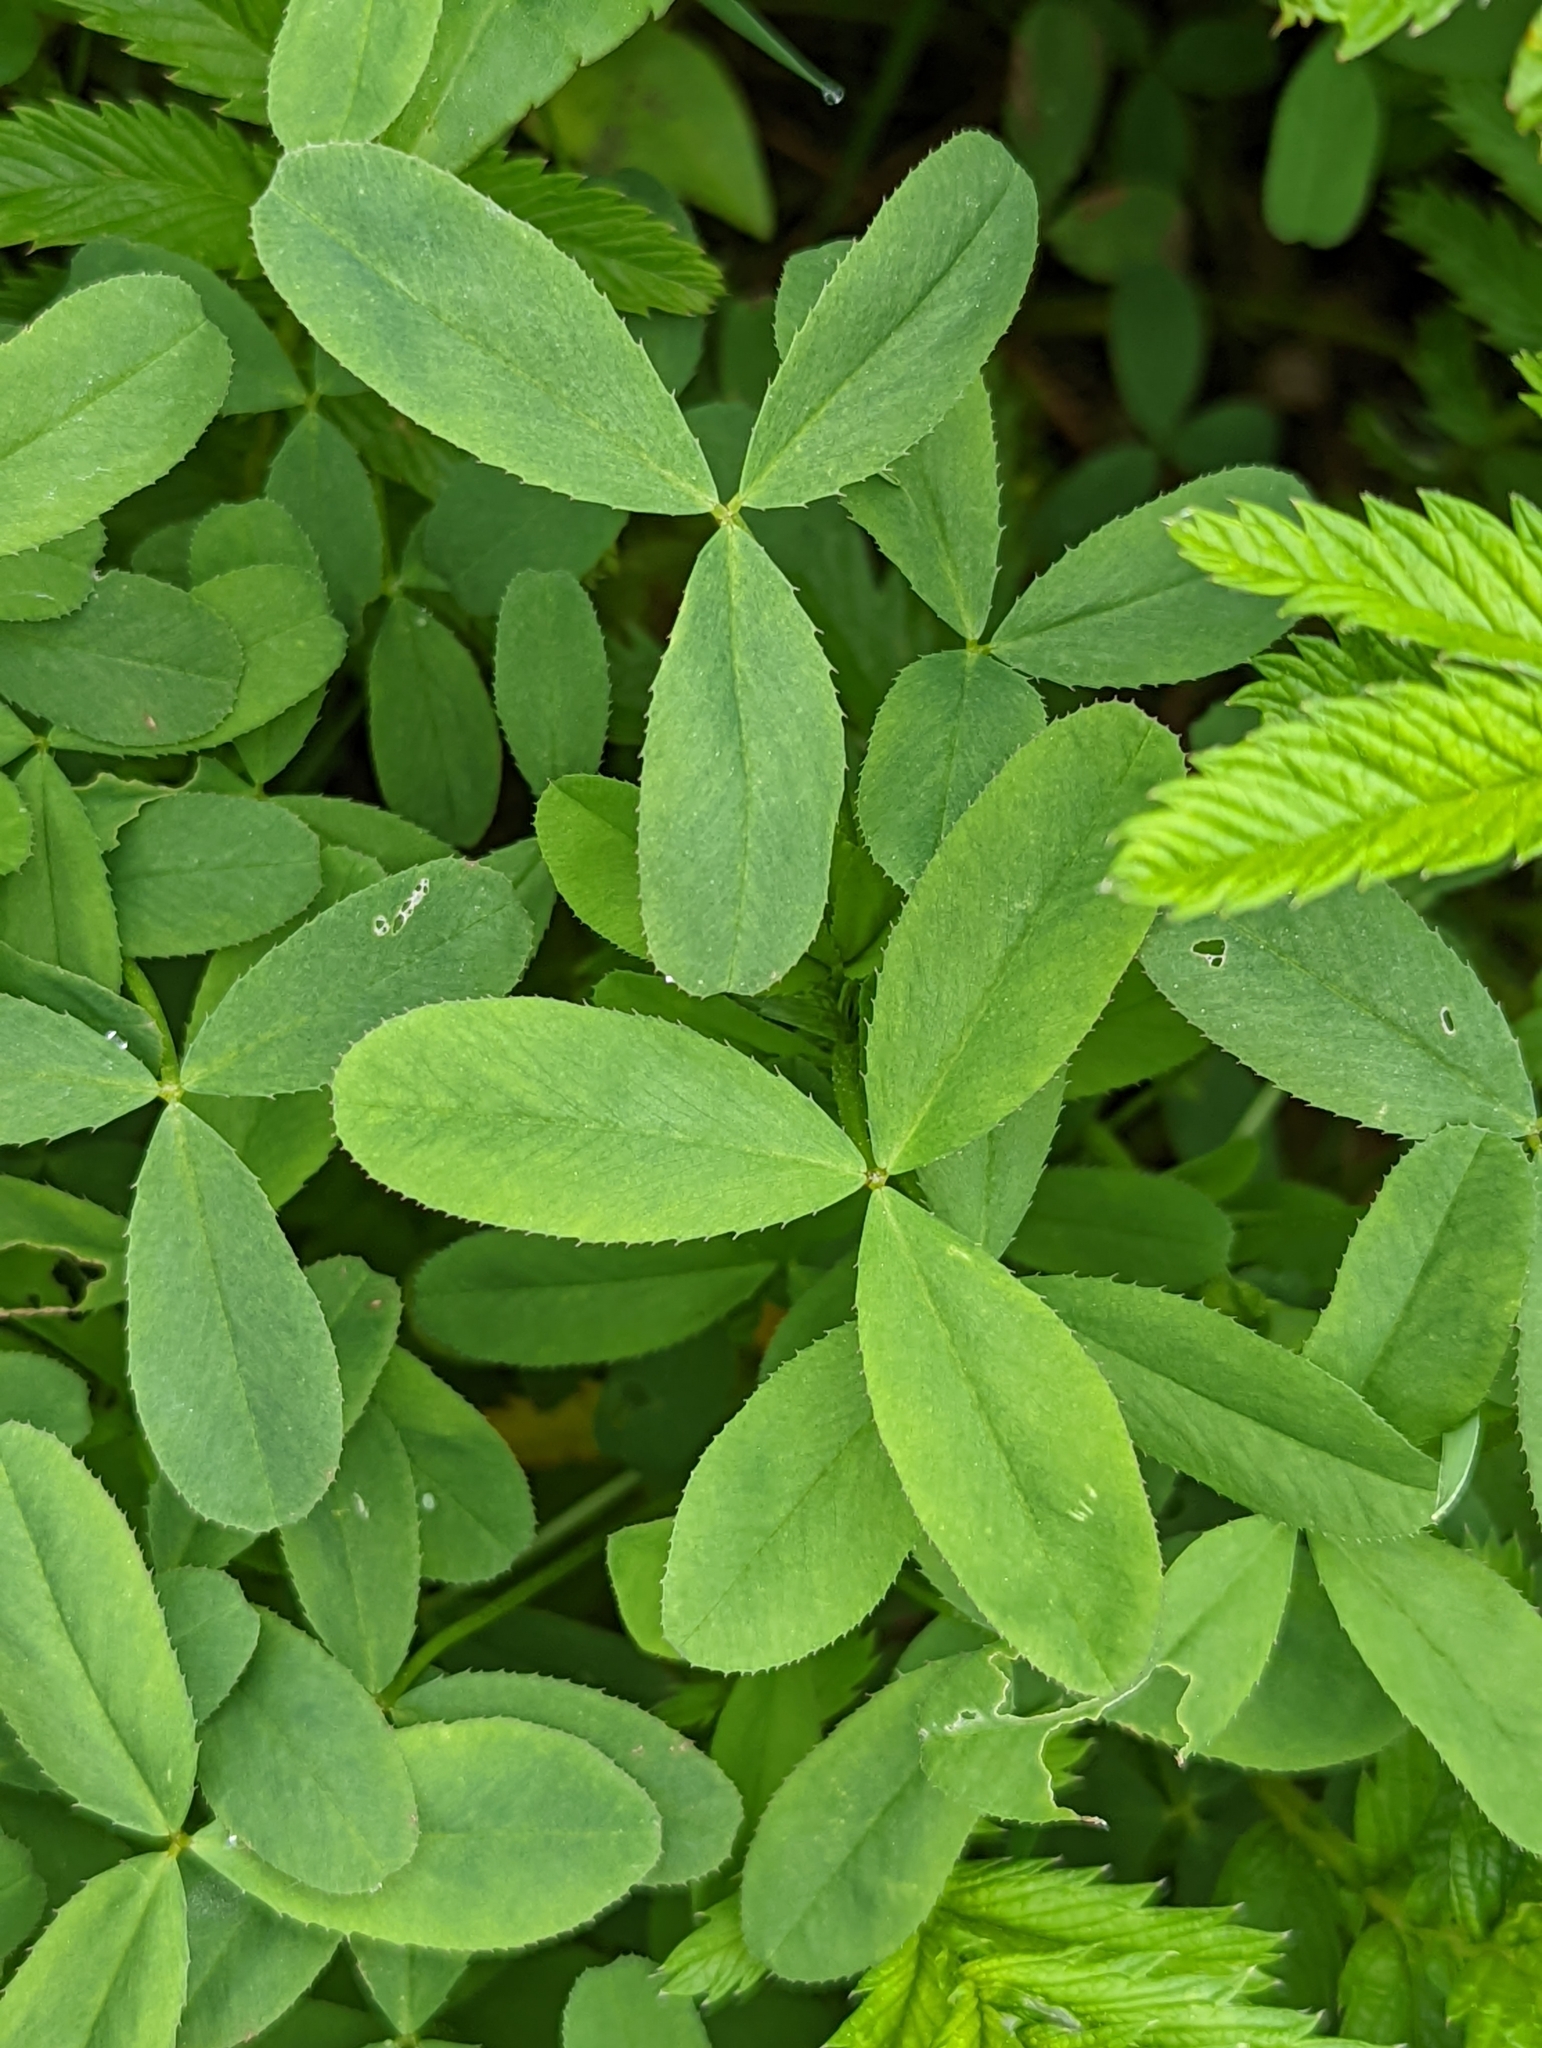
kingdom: Plantae
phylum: Tracheophyta
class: Magnoliopsida
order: Fabales
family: Fabaceae
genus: Trifolium
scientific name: Trifolium wormskioldii
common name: Springbank clover
